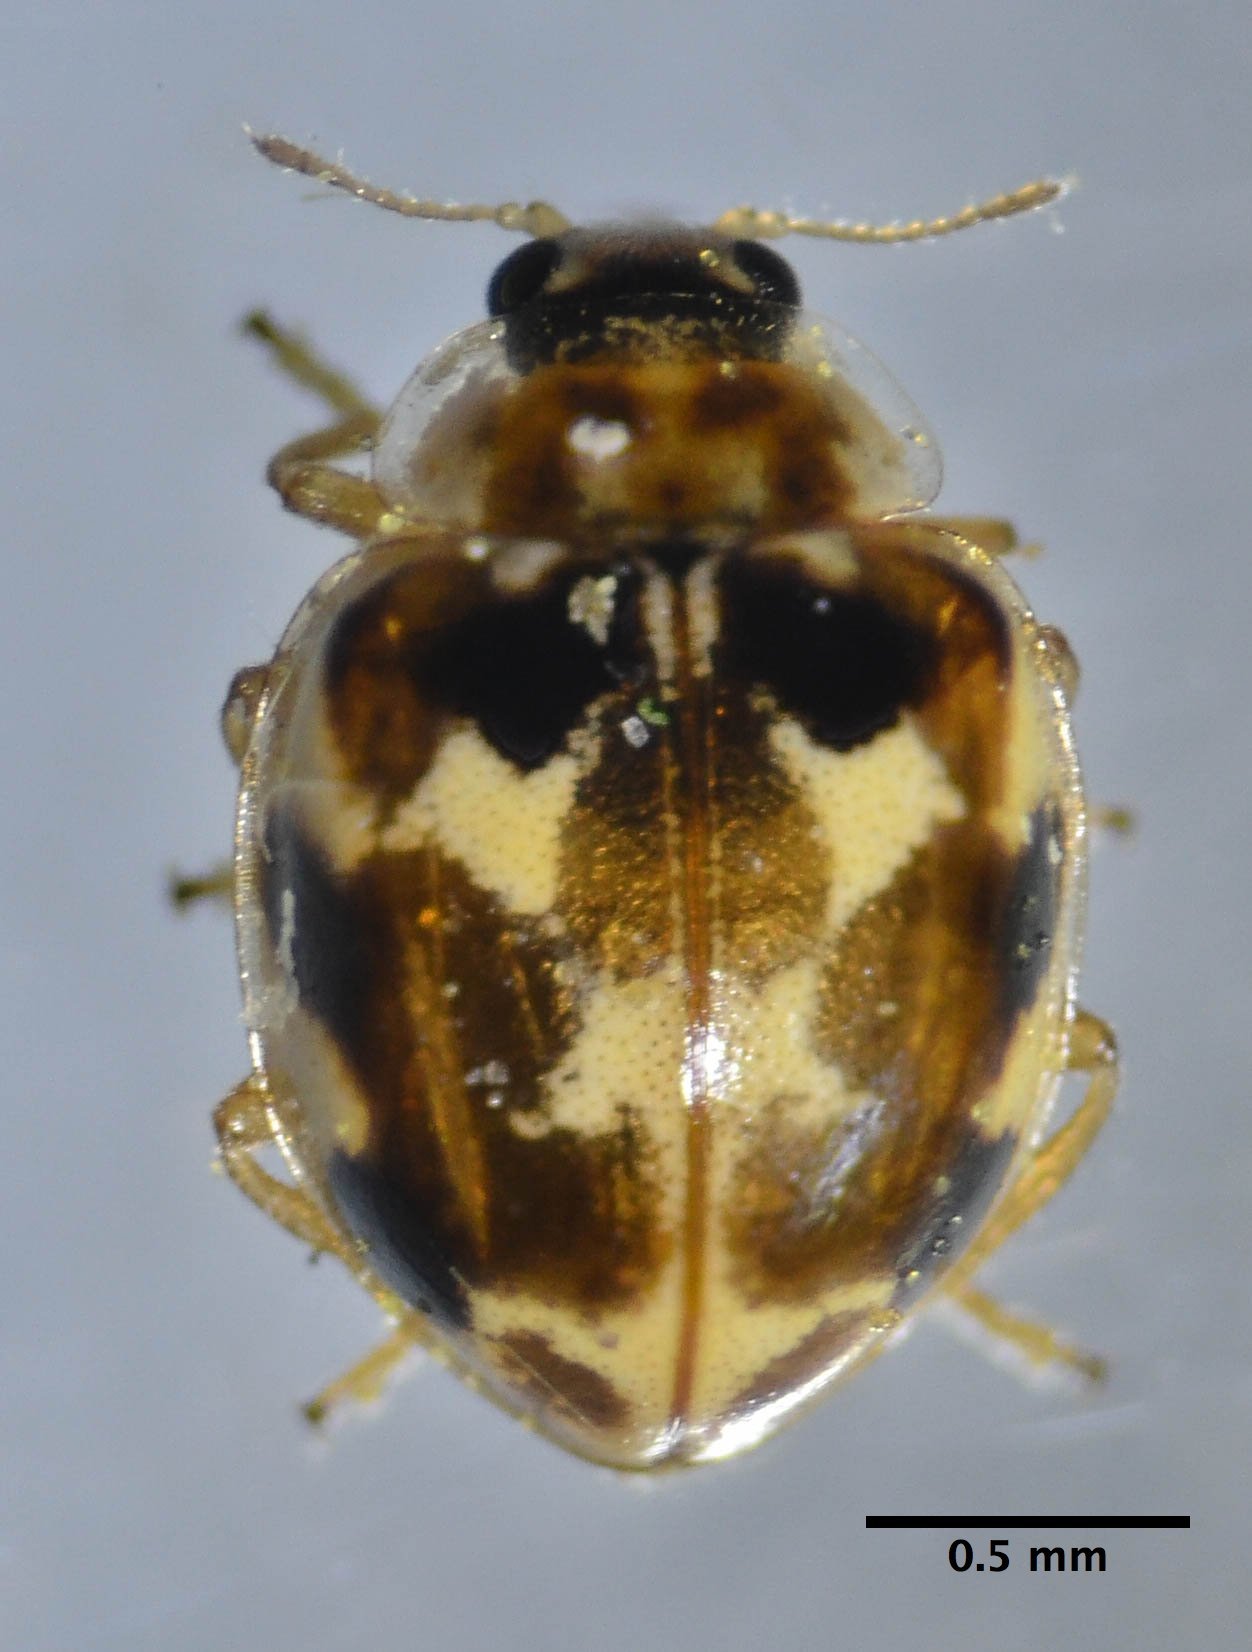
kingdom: Animalia
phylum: Arthropoda
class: Insecta
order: Coleoptera
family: Coccinellidae
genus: Psyllobora
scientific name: Psyllobora vigintimaculata
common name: Ladybird beetle
